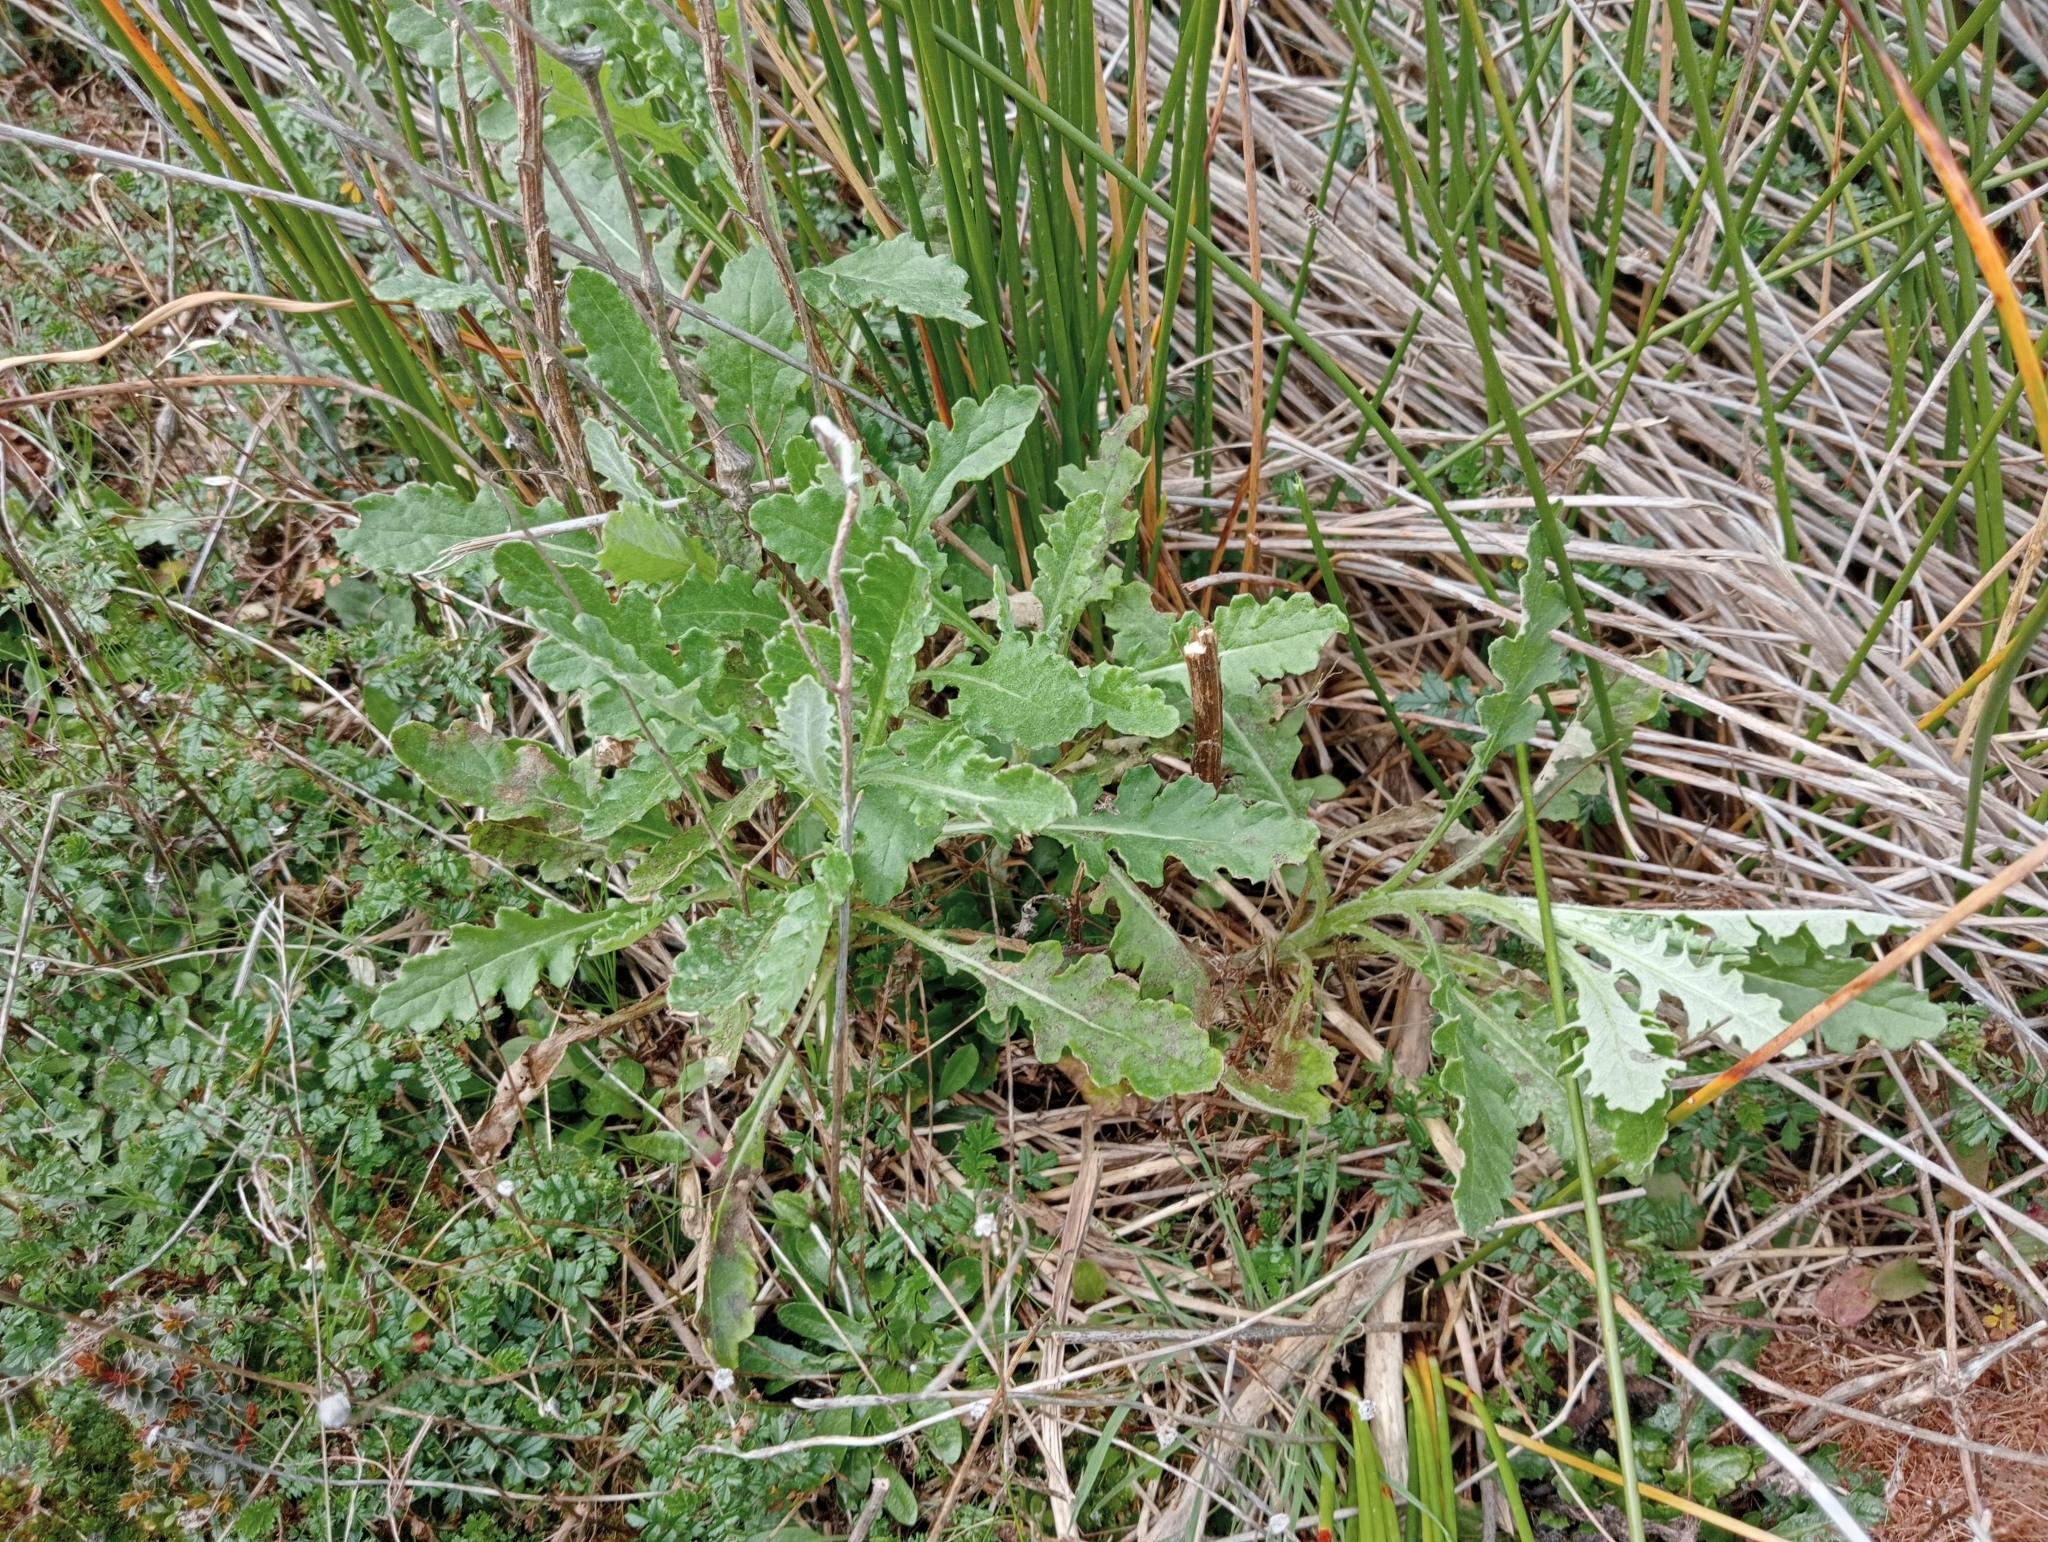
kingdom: Plantae
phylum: Tracheophyta
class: Magnoliopsida
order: Asterales
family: Asteraceae
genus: Senecio
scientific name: Senecio glomeratus
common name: Cutleaf burnweed
